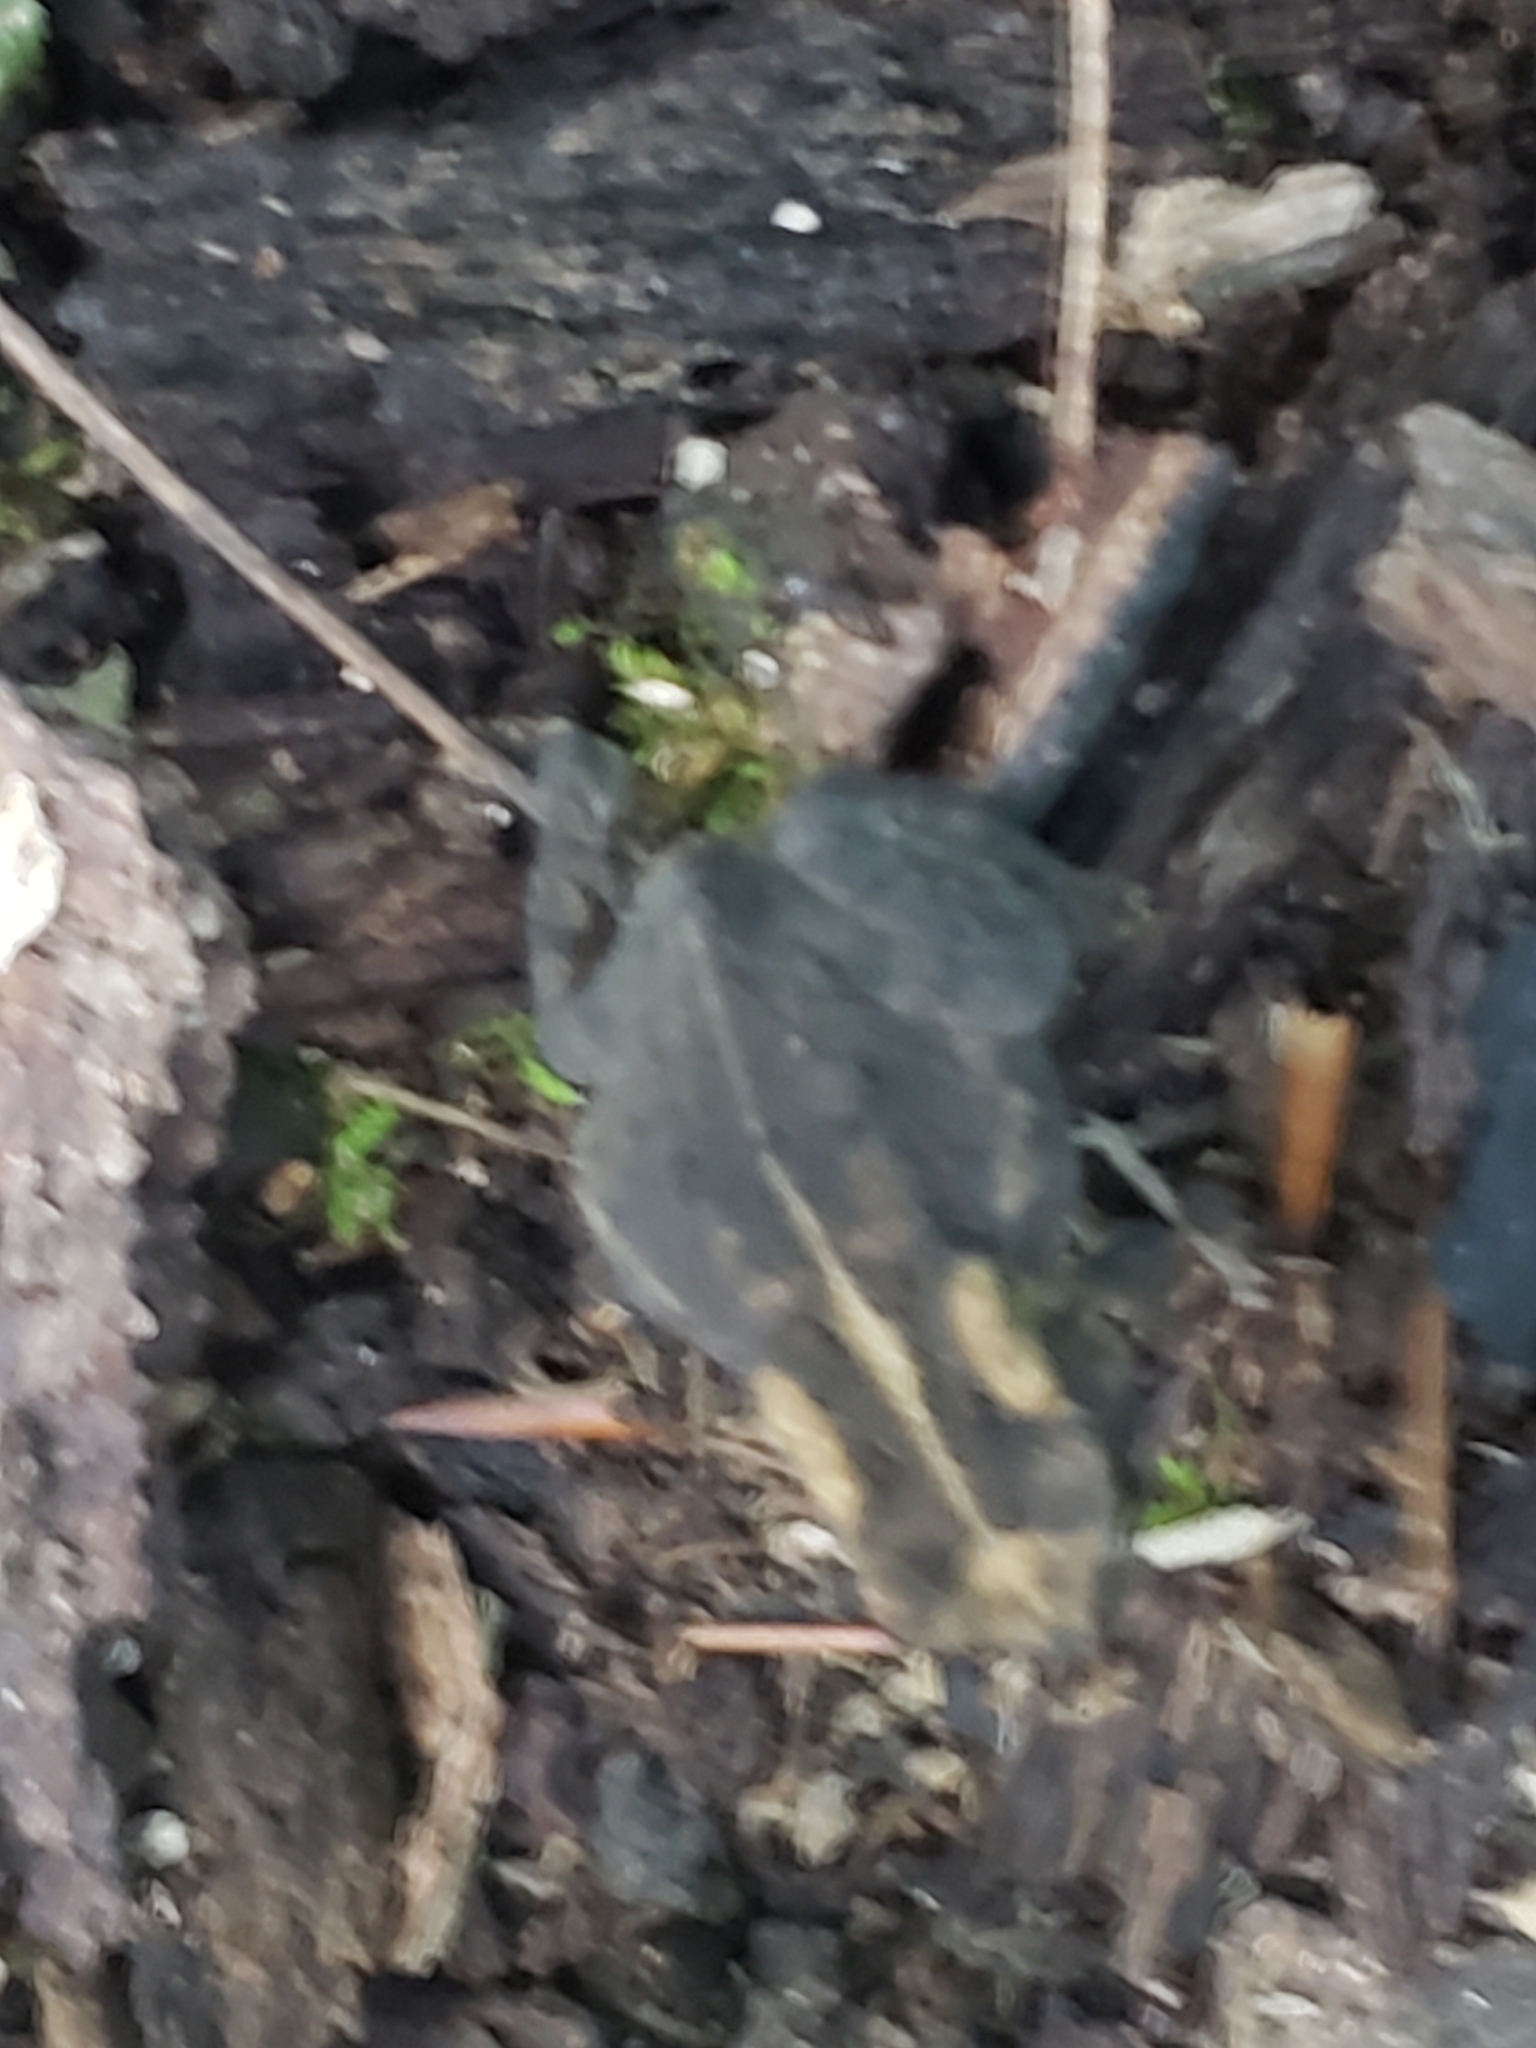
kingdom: Animalia
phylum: Chordata
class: Amphibia
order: Anura
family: Bufonidae
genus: Anaxyrus
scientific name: Anaxyrus americanus
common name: American toad
